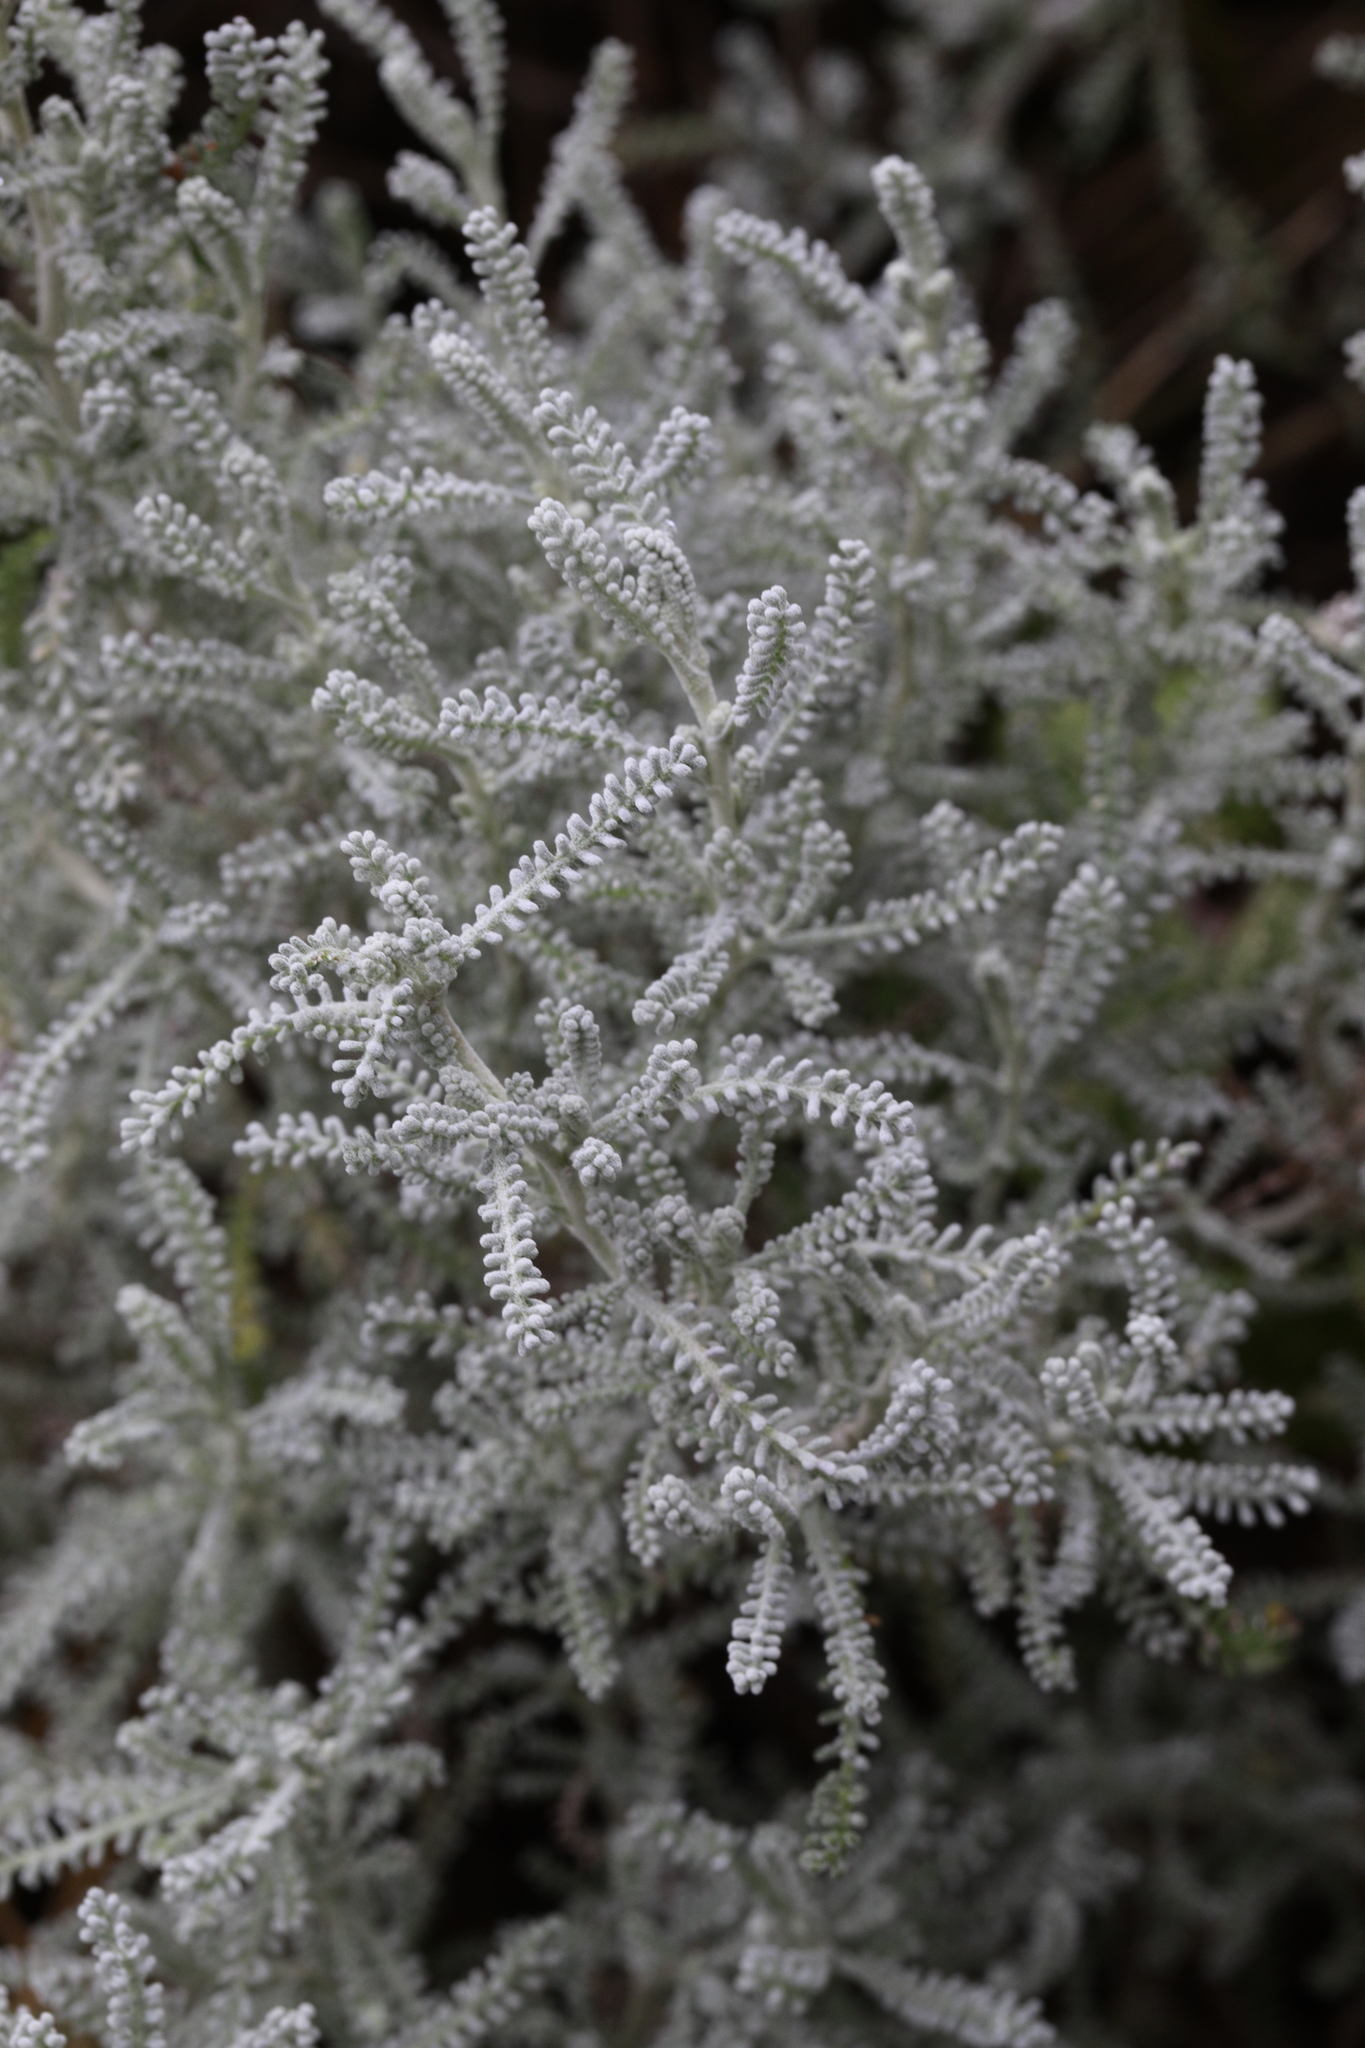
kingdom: Plantae
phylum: Tracheophyta
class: Magnoliopsida
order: Asterales
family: Asteraceae
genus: Santolina
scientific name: Santolina chamaecyparissus
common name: Lavender-cotton
